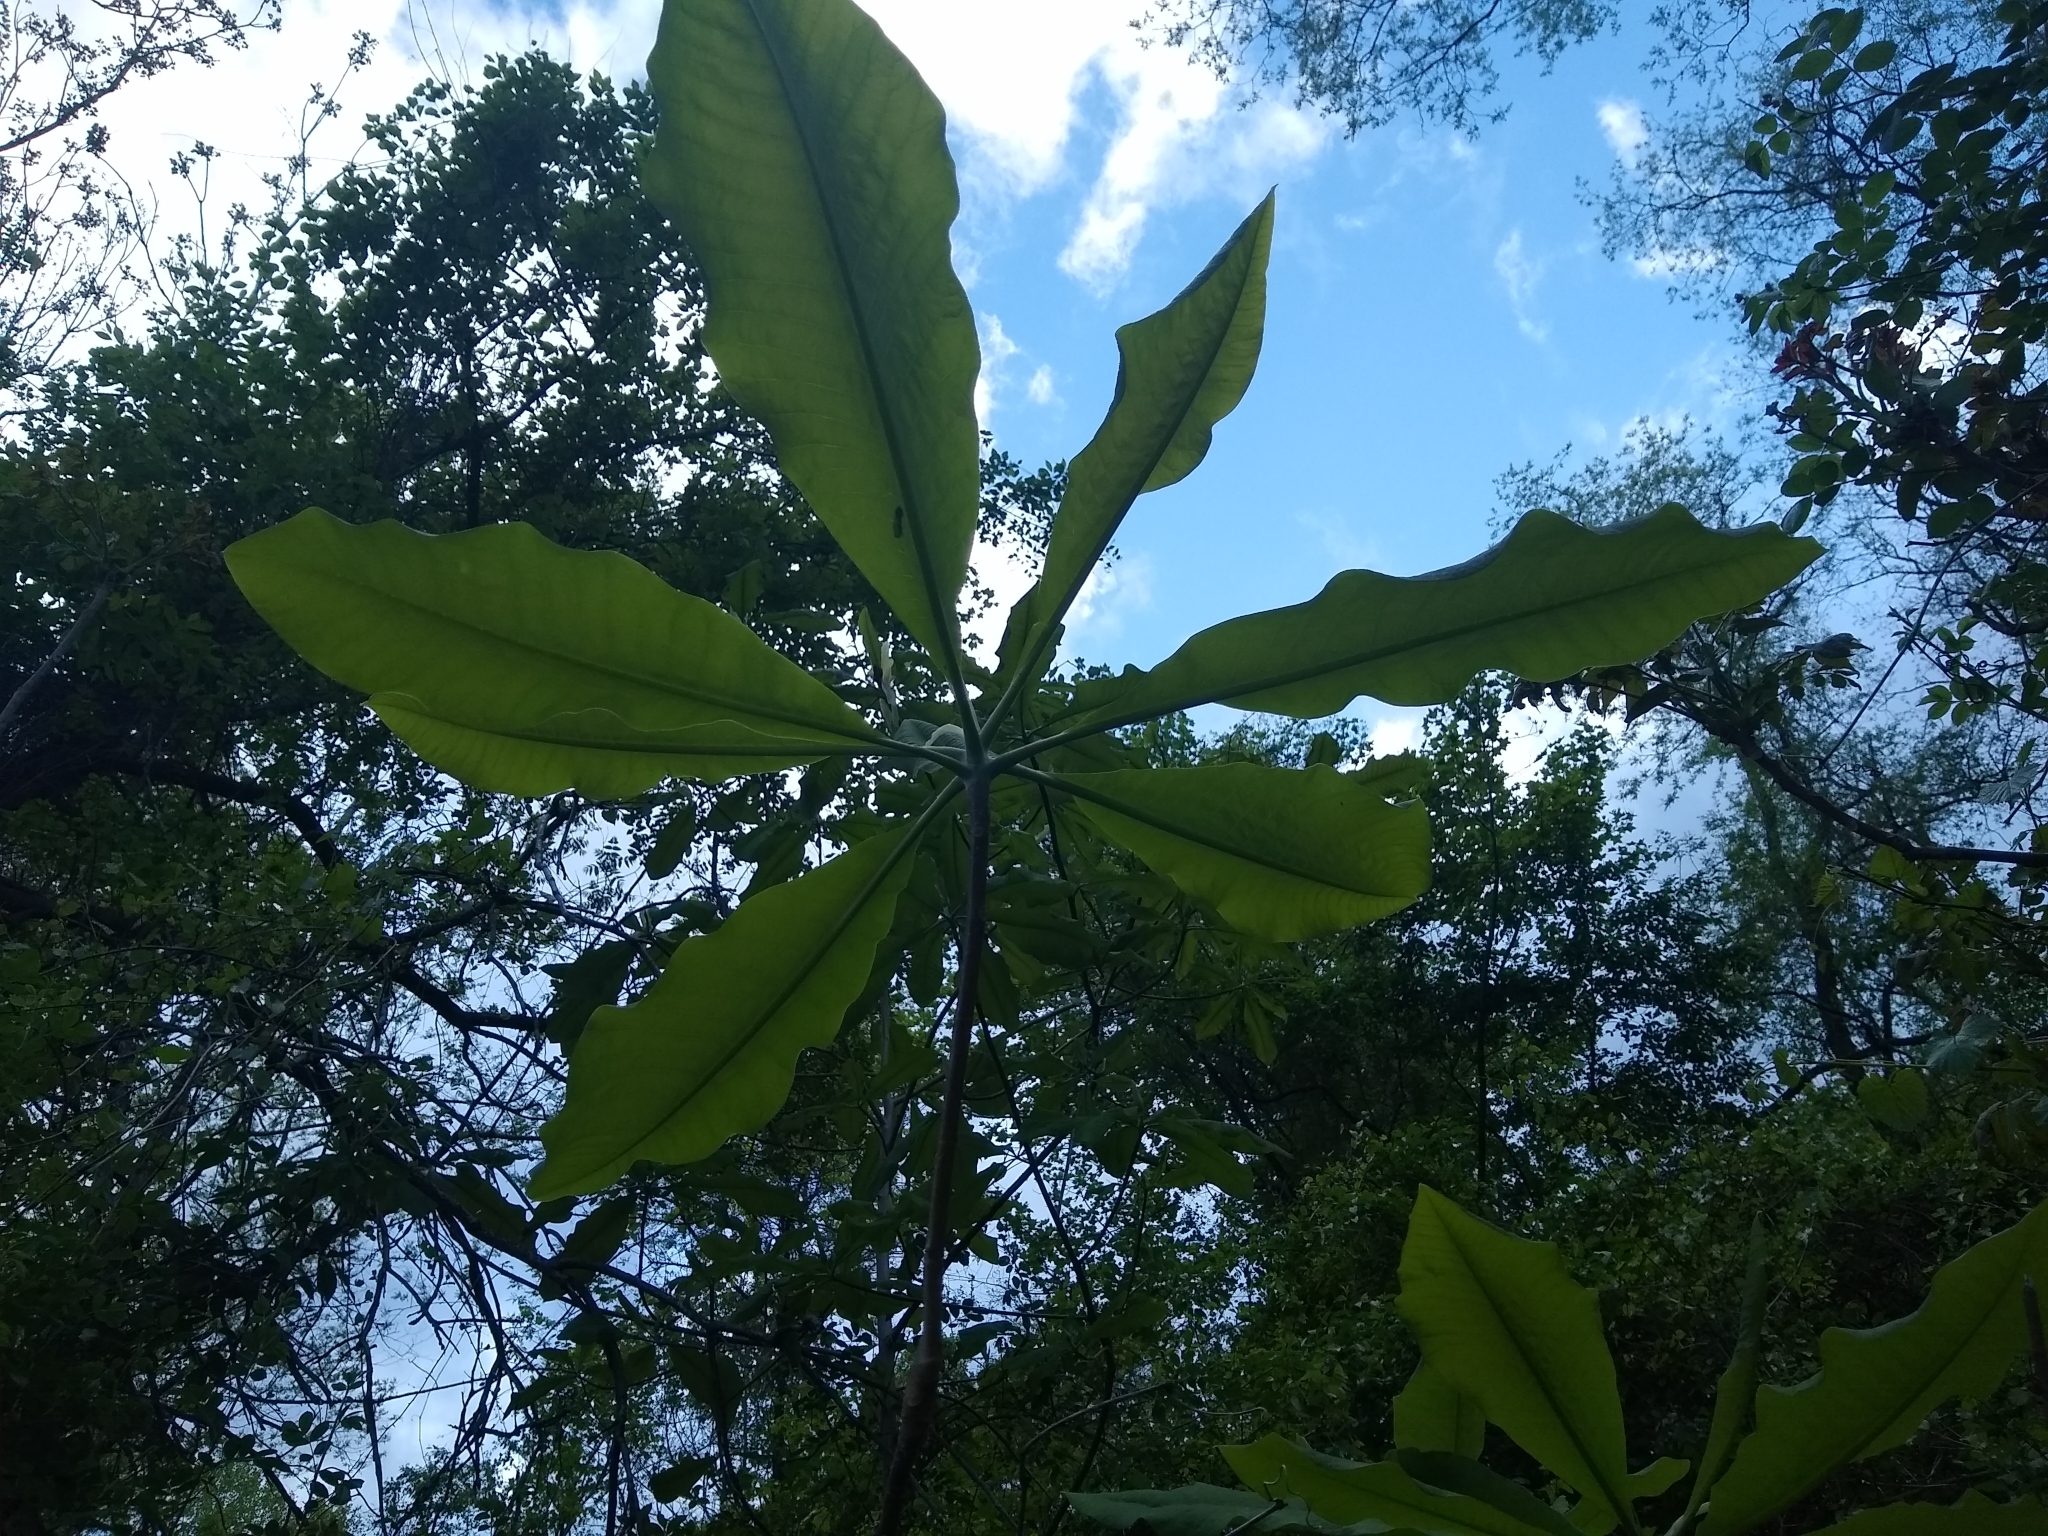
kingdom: Plantae
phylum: Tracheophyta
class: Magnoliopsida
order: Magnoliales
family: Magnoliaceae
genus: Magnolia
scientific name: Magnolia tripetala
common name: Umbrella magnolia
